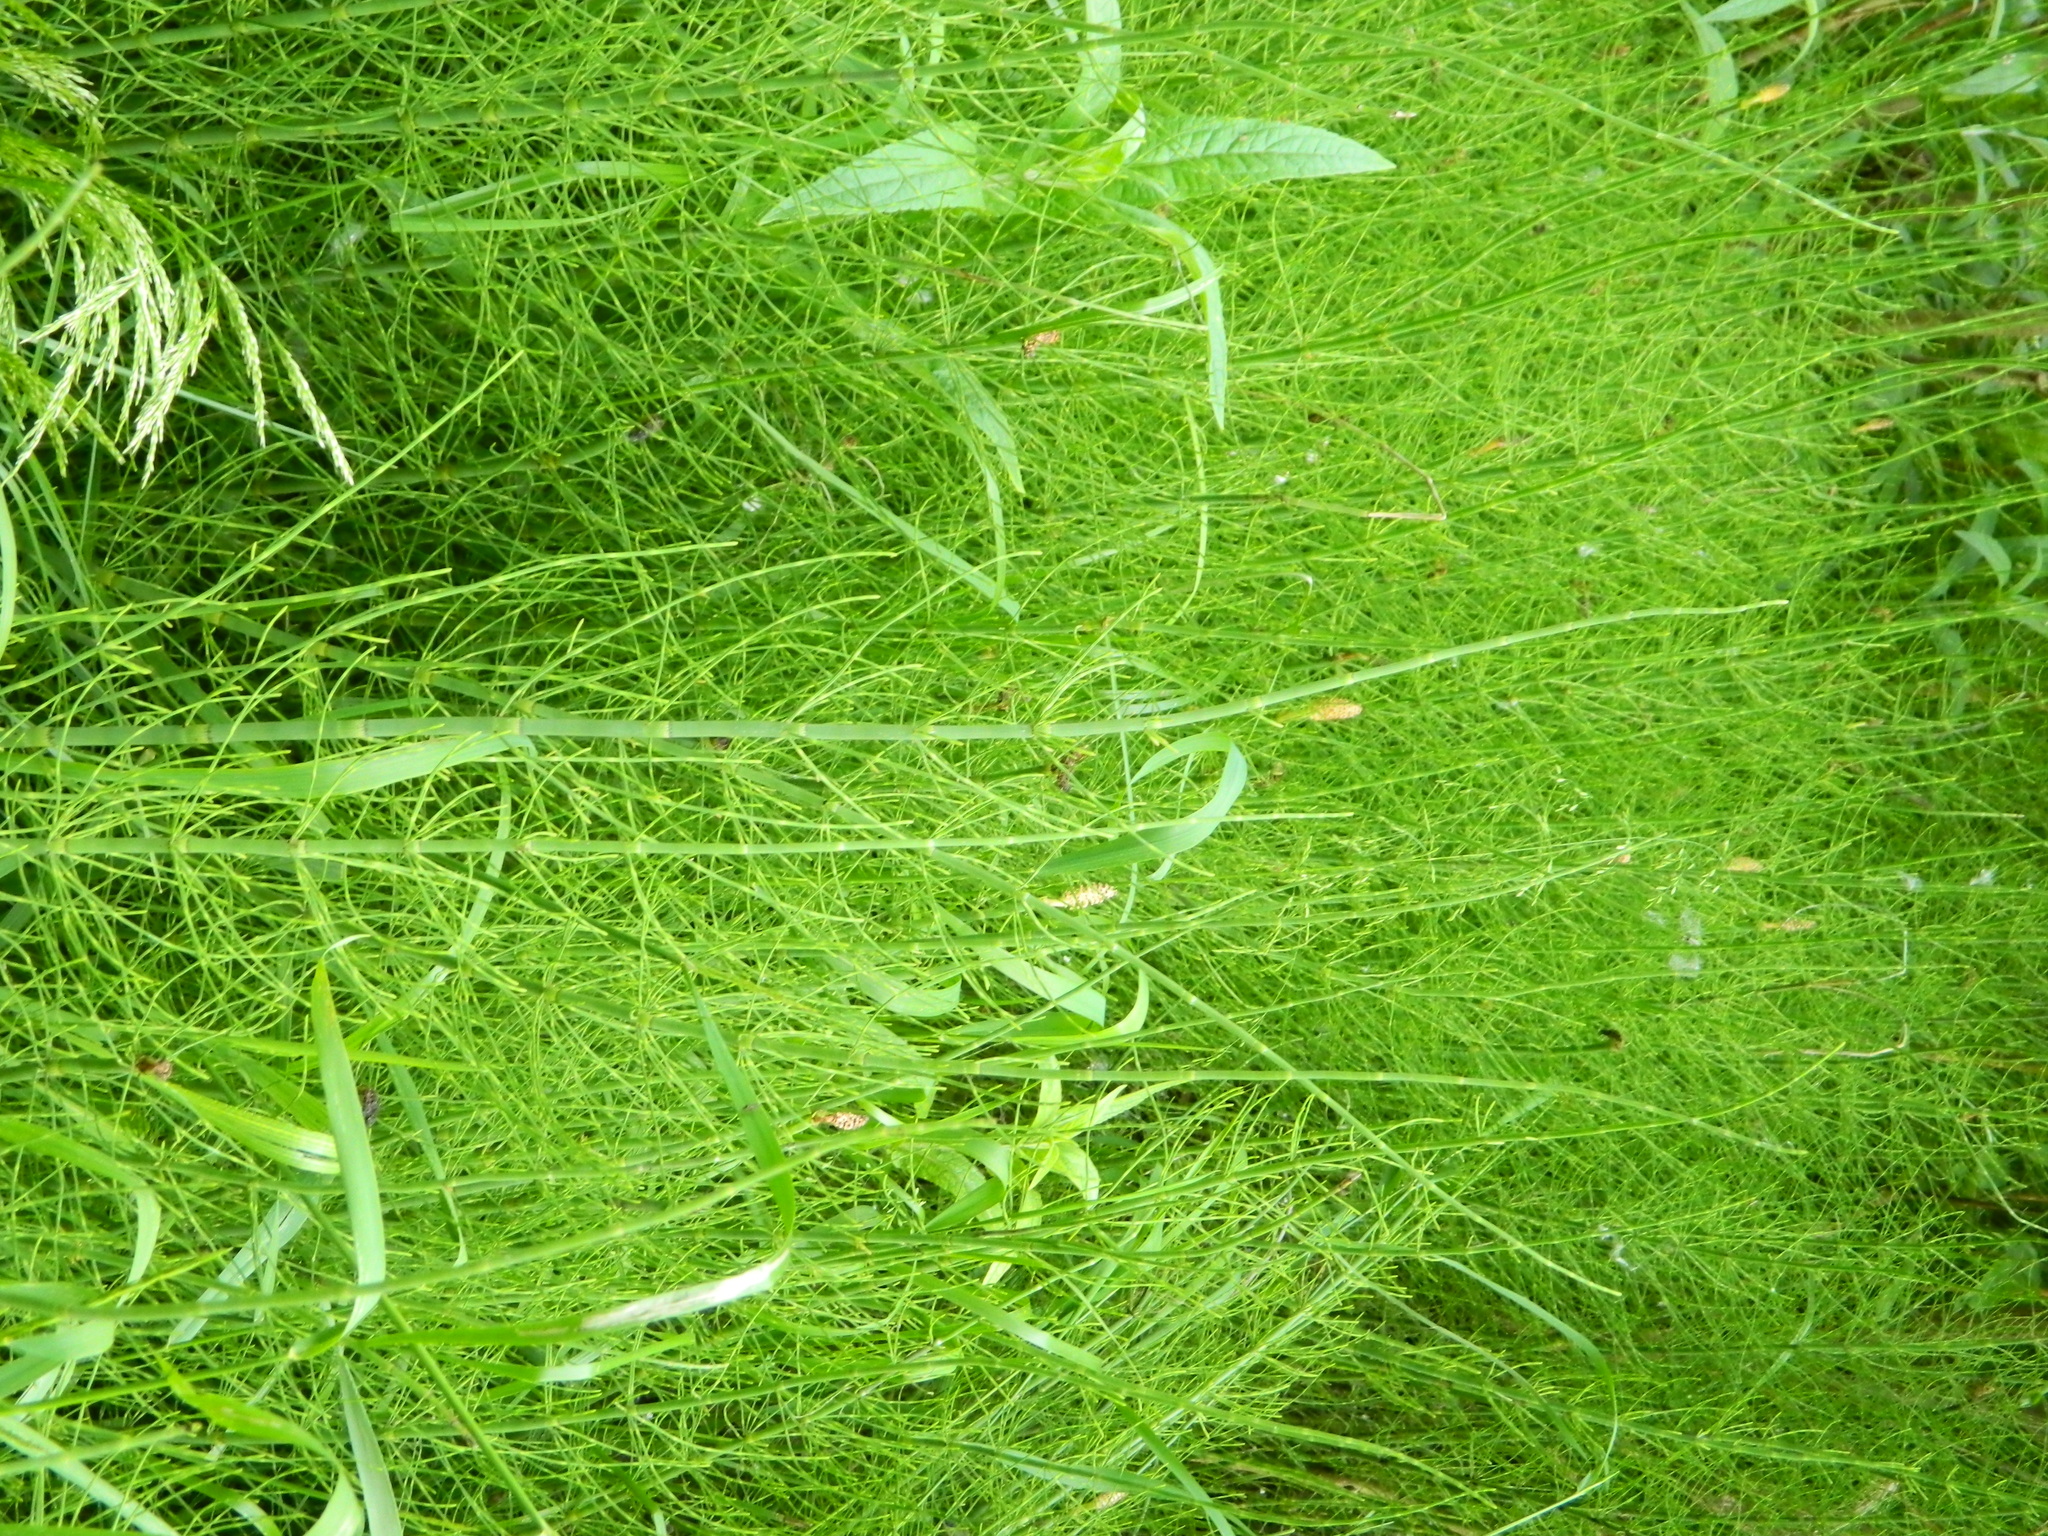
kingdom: Plantae
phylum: Tracheophyta
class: Polypodiopsida
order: Equisetales
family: Equisetaceae
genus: Equisetum
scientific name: Equisetum fluviatile
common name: Water horsetail
